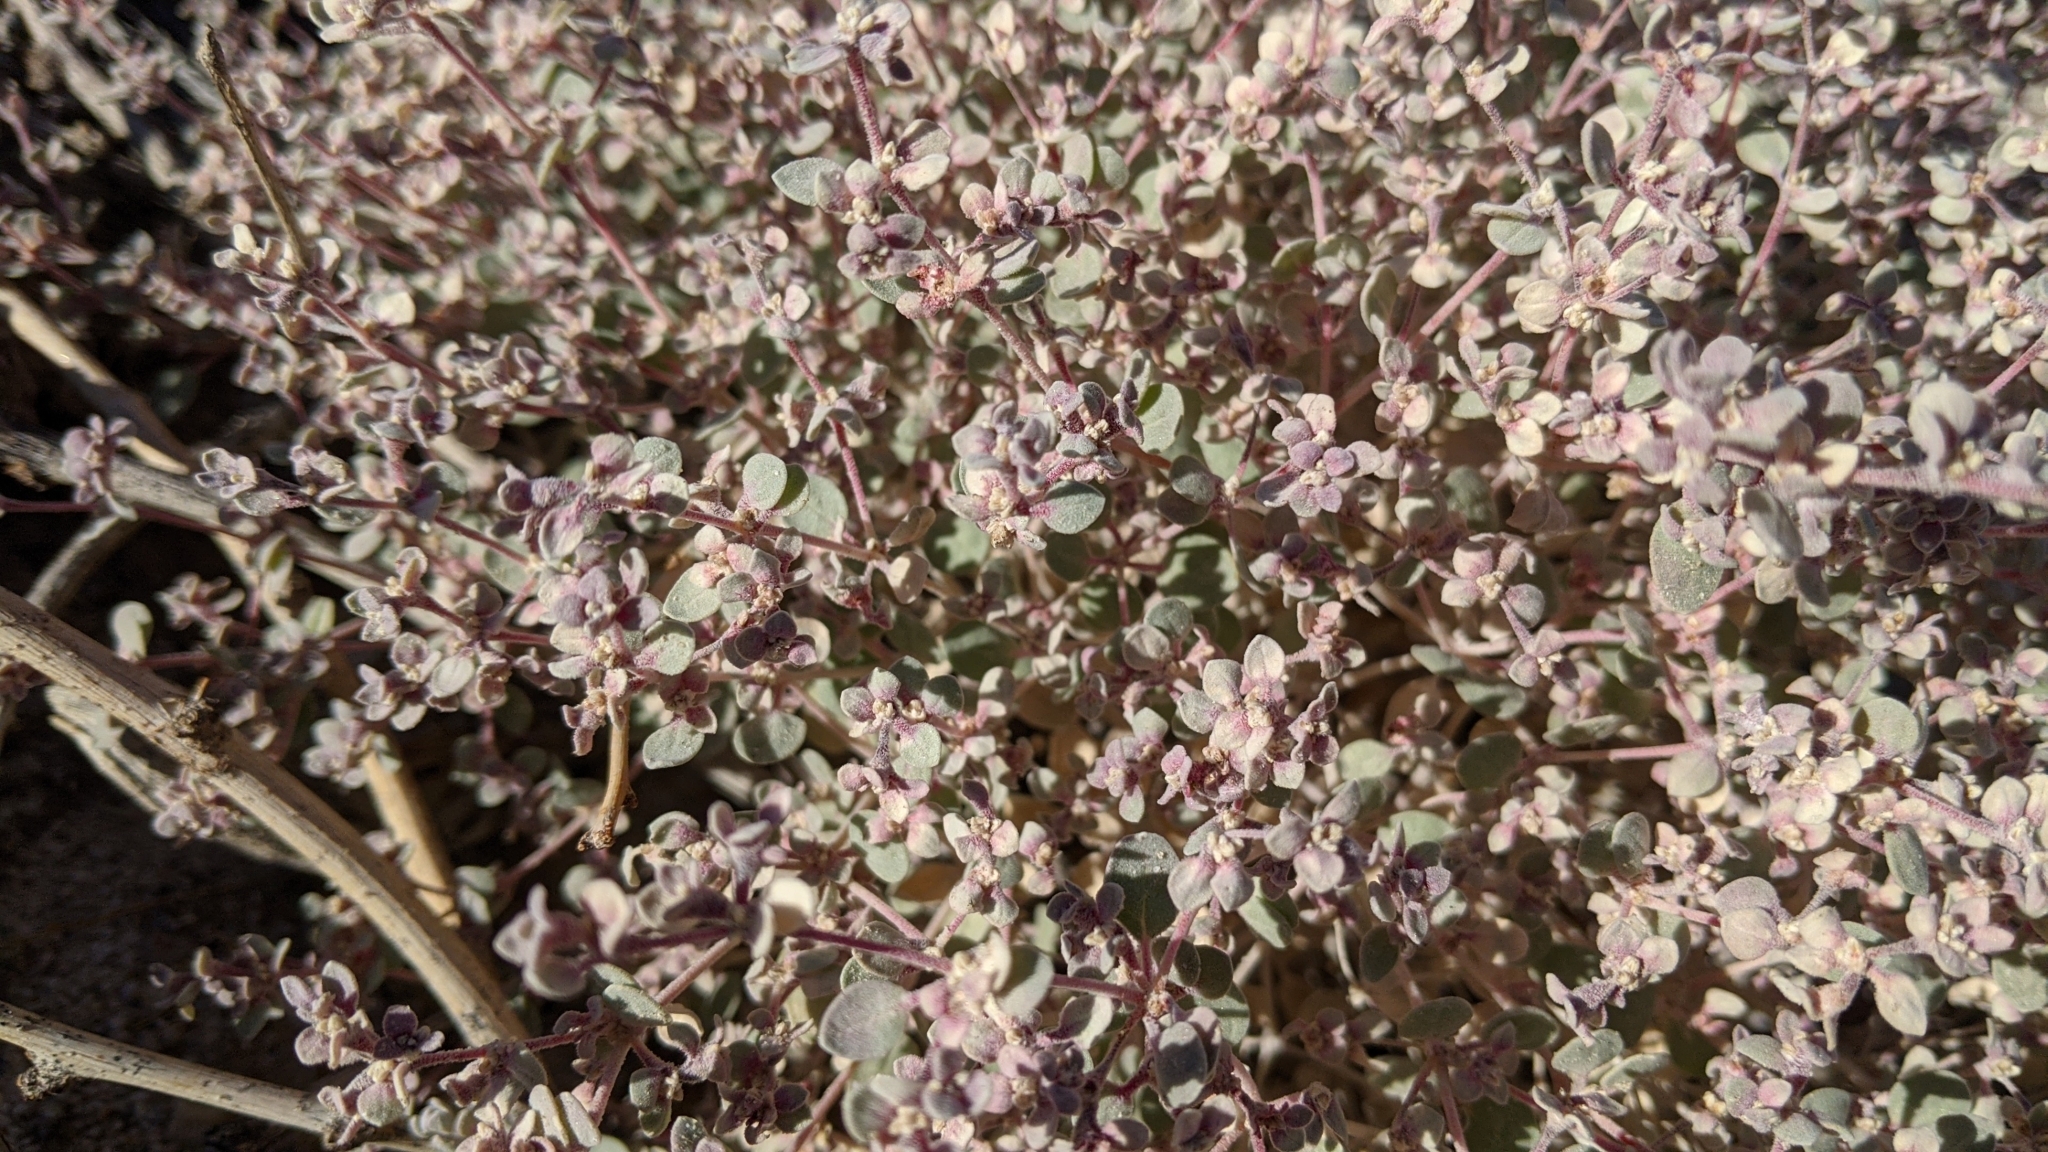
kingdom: Plantae
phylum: Tracheophyta
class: Magnoliopsida
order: Caryophyllales
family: Amaranthaceae
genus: Tidestromia
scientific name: Tidestromia suffruticosa
